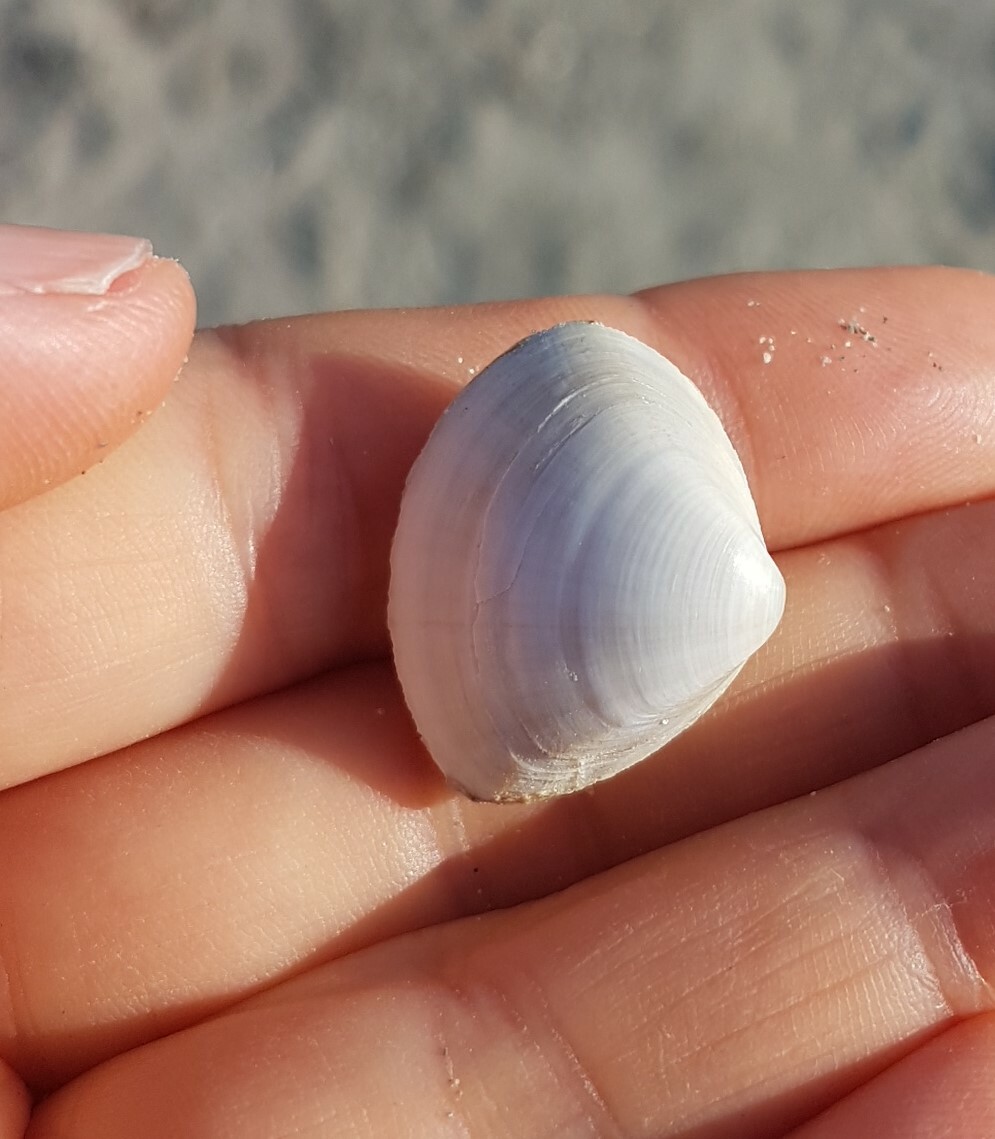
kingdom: Animalia
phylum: Mollusca
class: Bivalvia
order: Venerida
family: Mactridae
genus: Mactra
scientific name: Mactra stultorum
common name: Rayed trough shell
